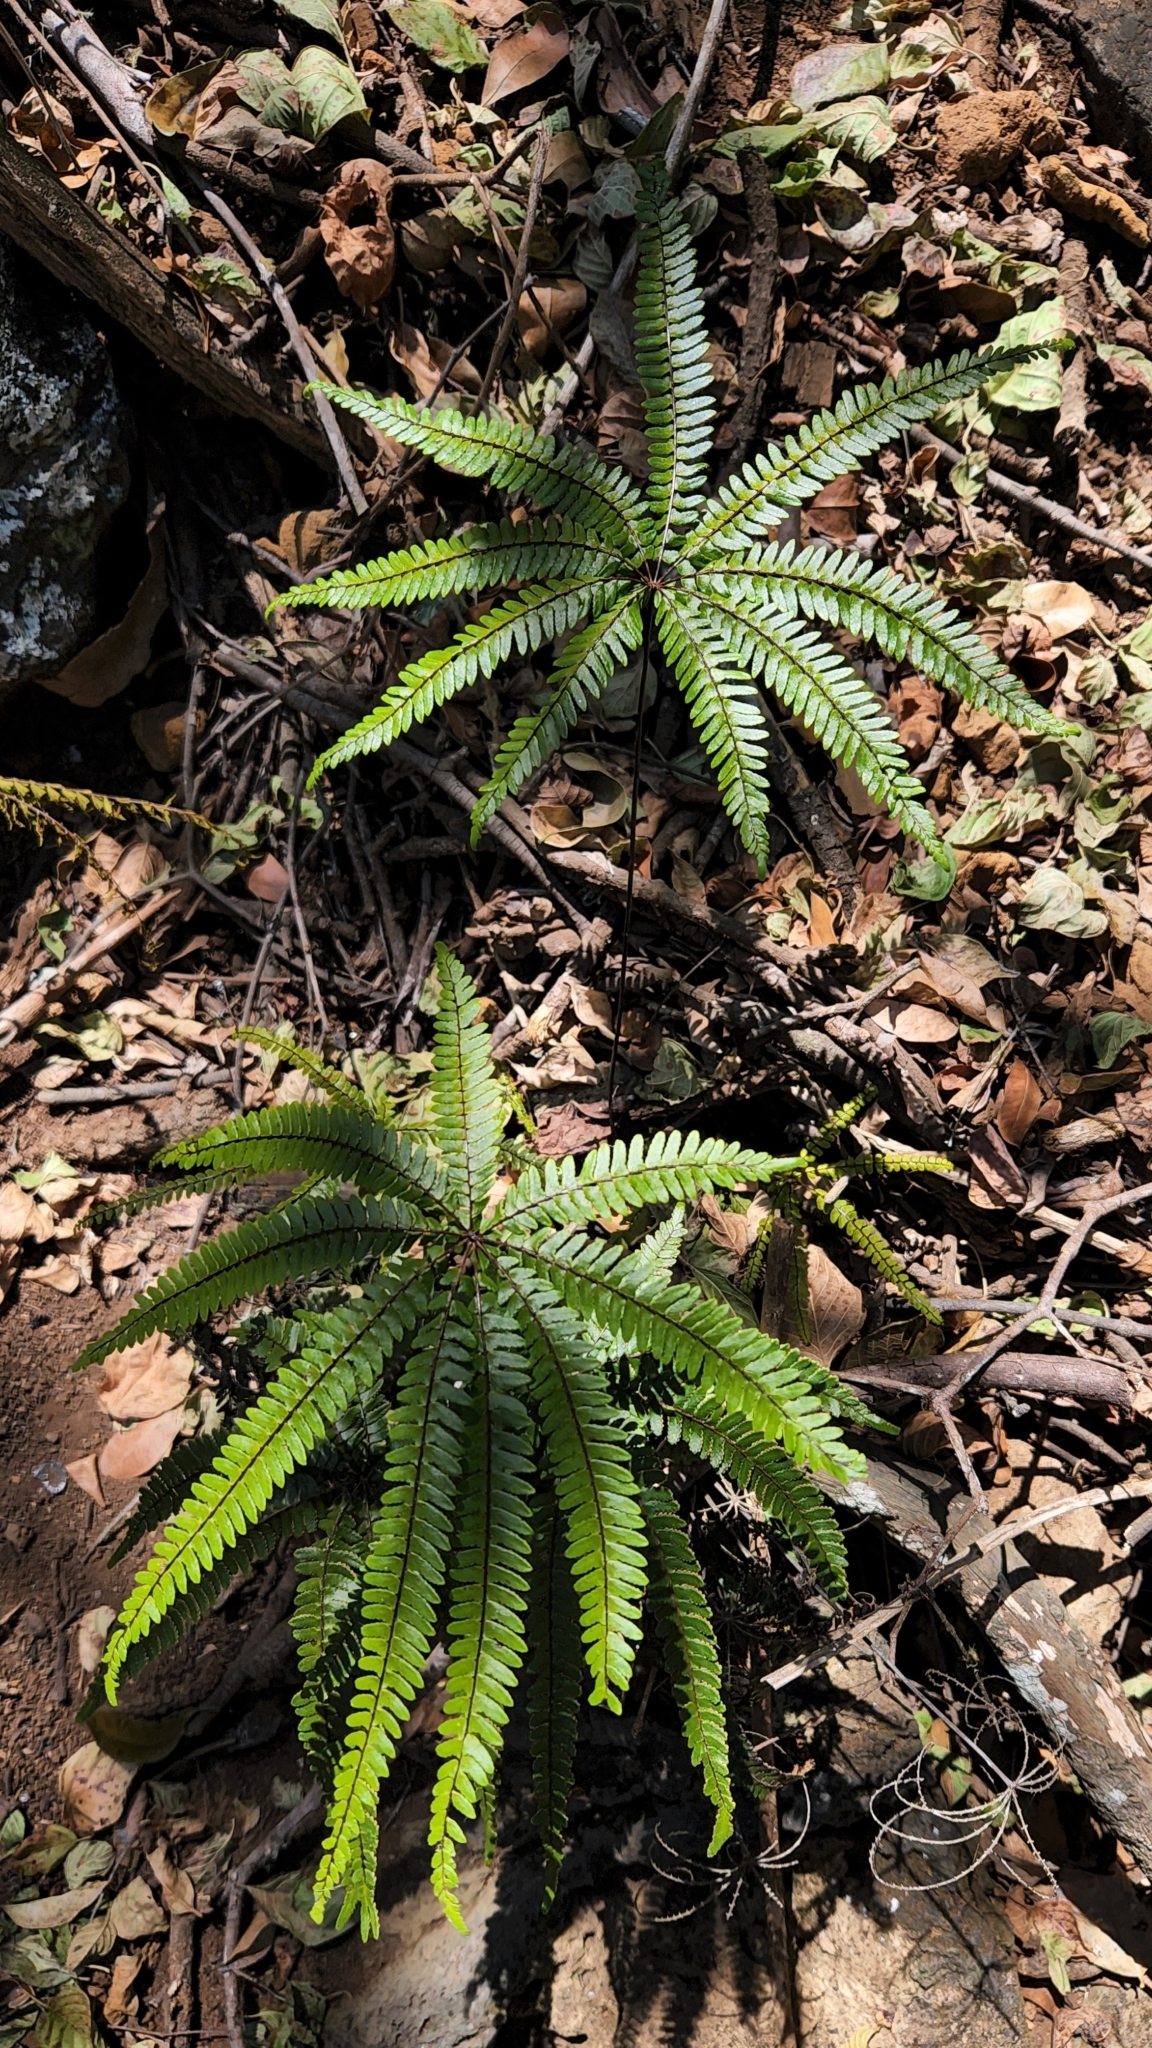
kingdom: Plantae
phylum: Tracheophyta
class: Polypodiopsida
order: Polypodiales
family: Pteridaceae
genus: Adiantopsis
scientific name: Adiantopsis radiata
